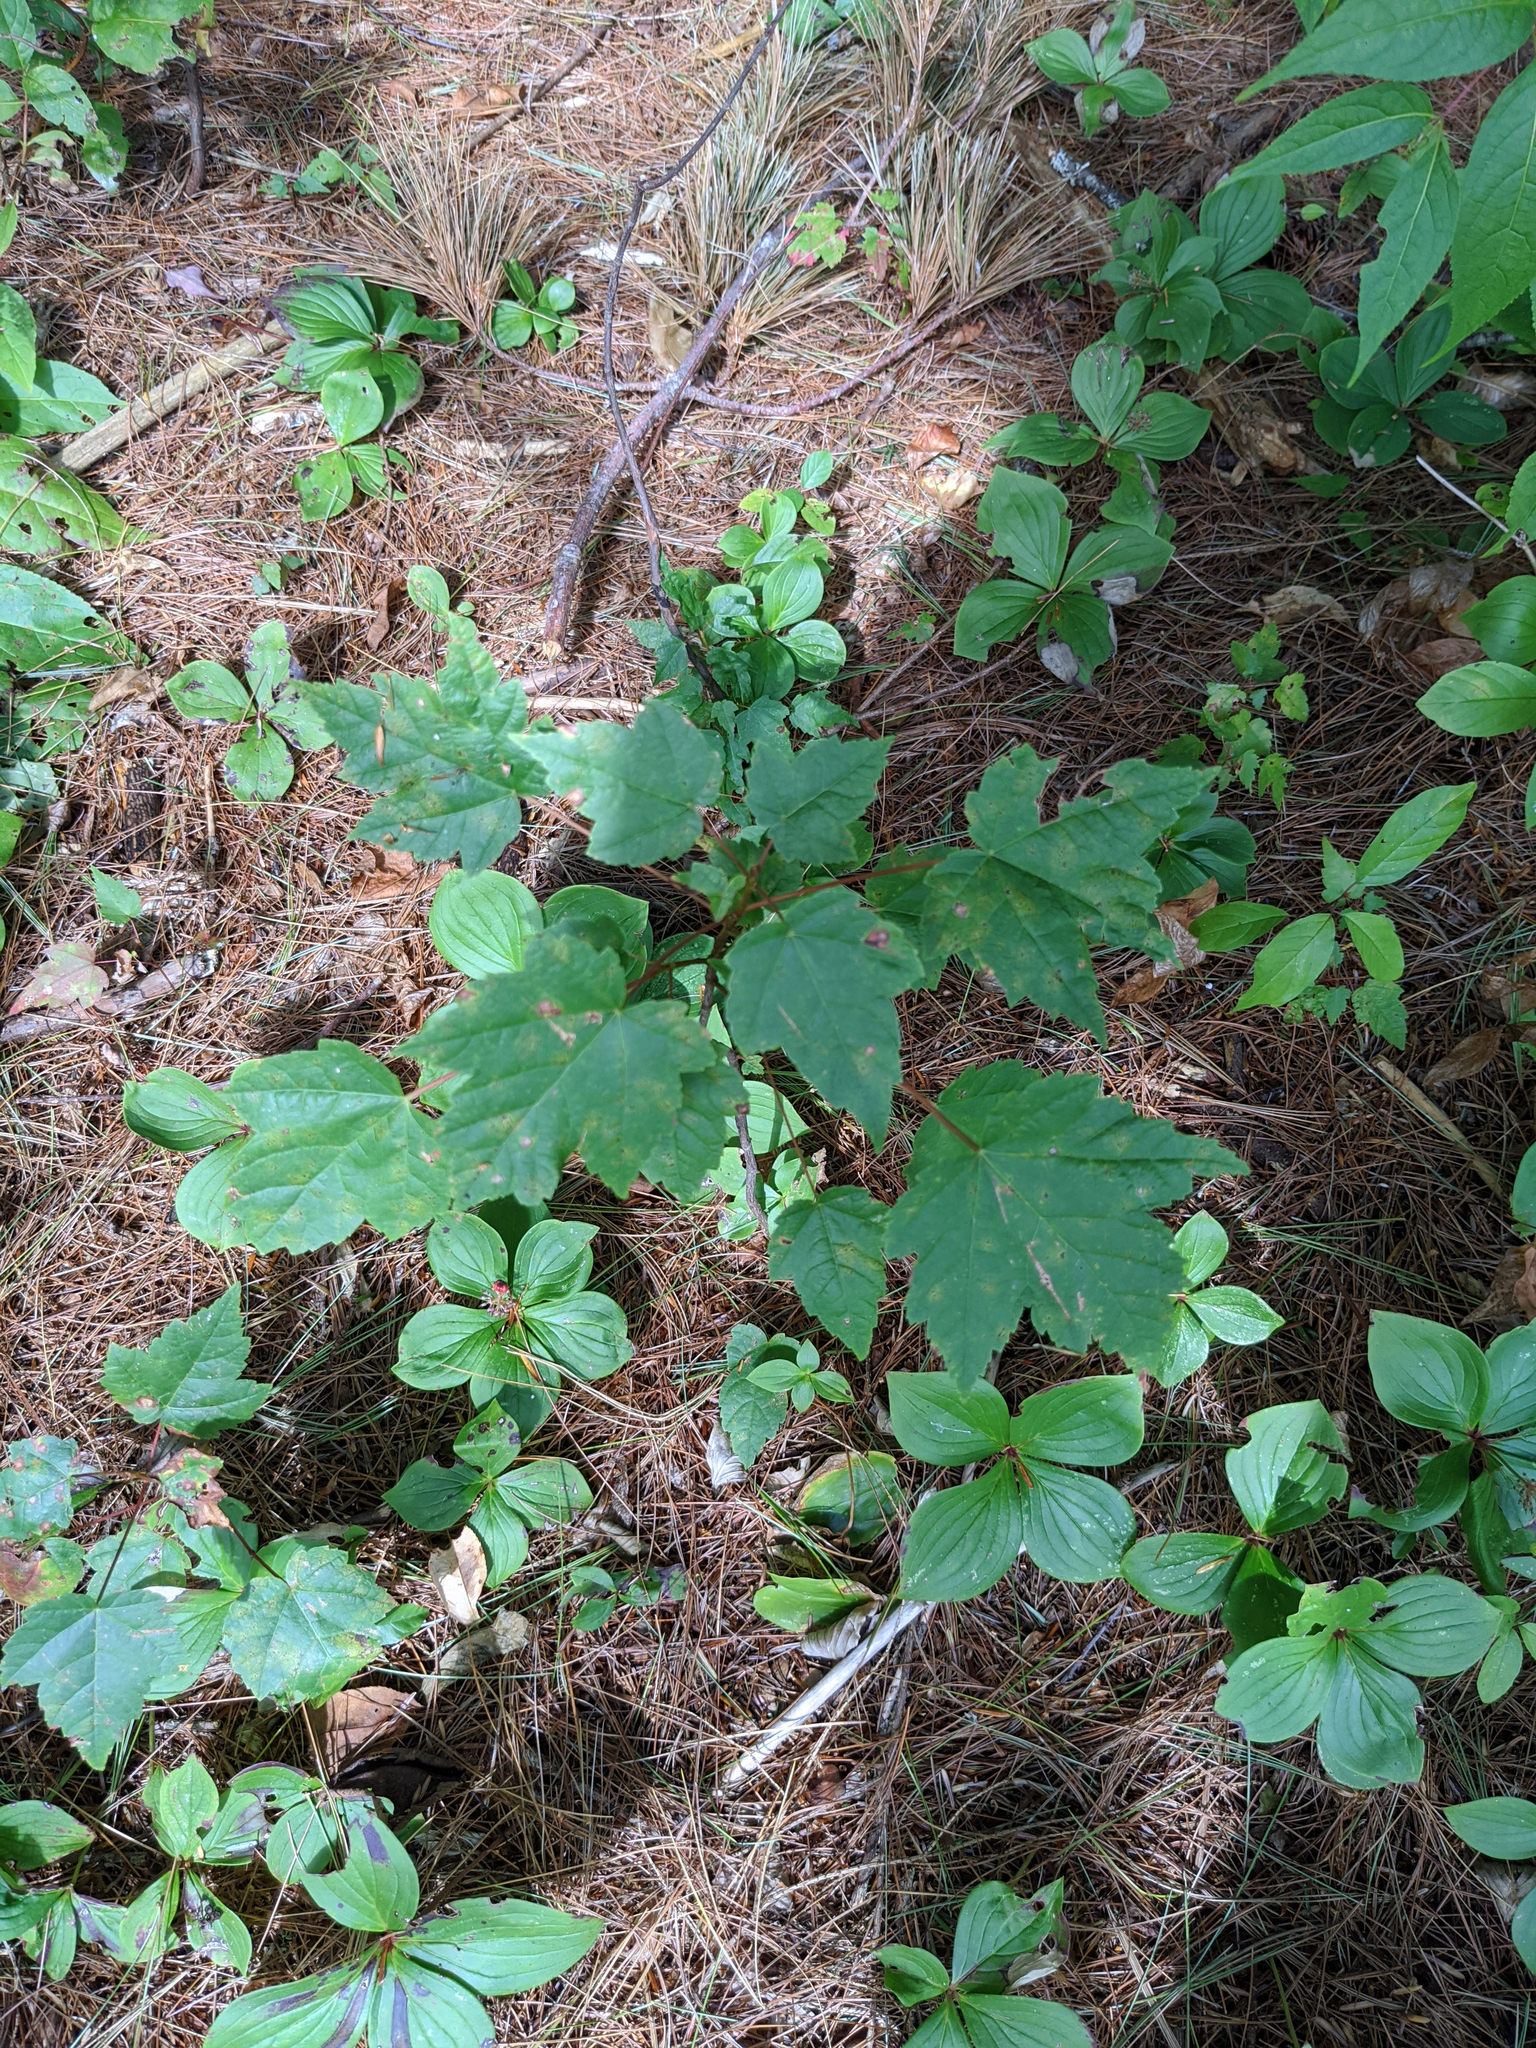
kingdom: Plantae
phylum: Tracheophyta
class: Magnoliopsida
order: Sapindales
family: Sapindaceae
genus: Acer
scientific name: Acer rubrum
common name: Red maple
